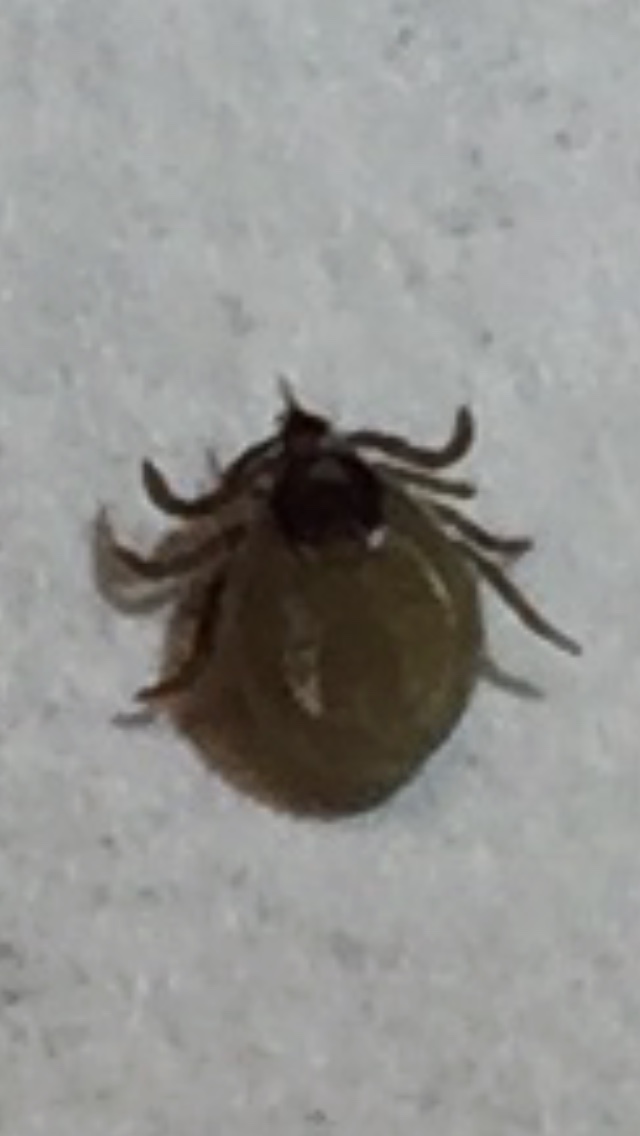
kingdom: Animalia
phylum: Arthropoda
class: Arachnida
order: Ixodida
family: Ixodidae
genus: Ixodes
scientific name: Ixodes scapularis
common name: Black legged tick
